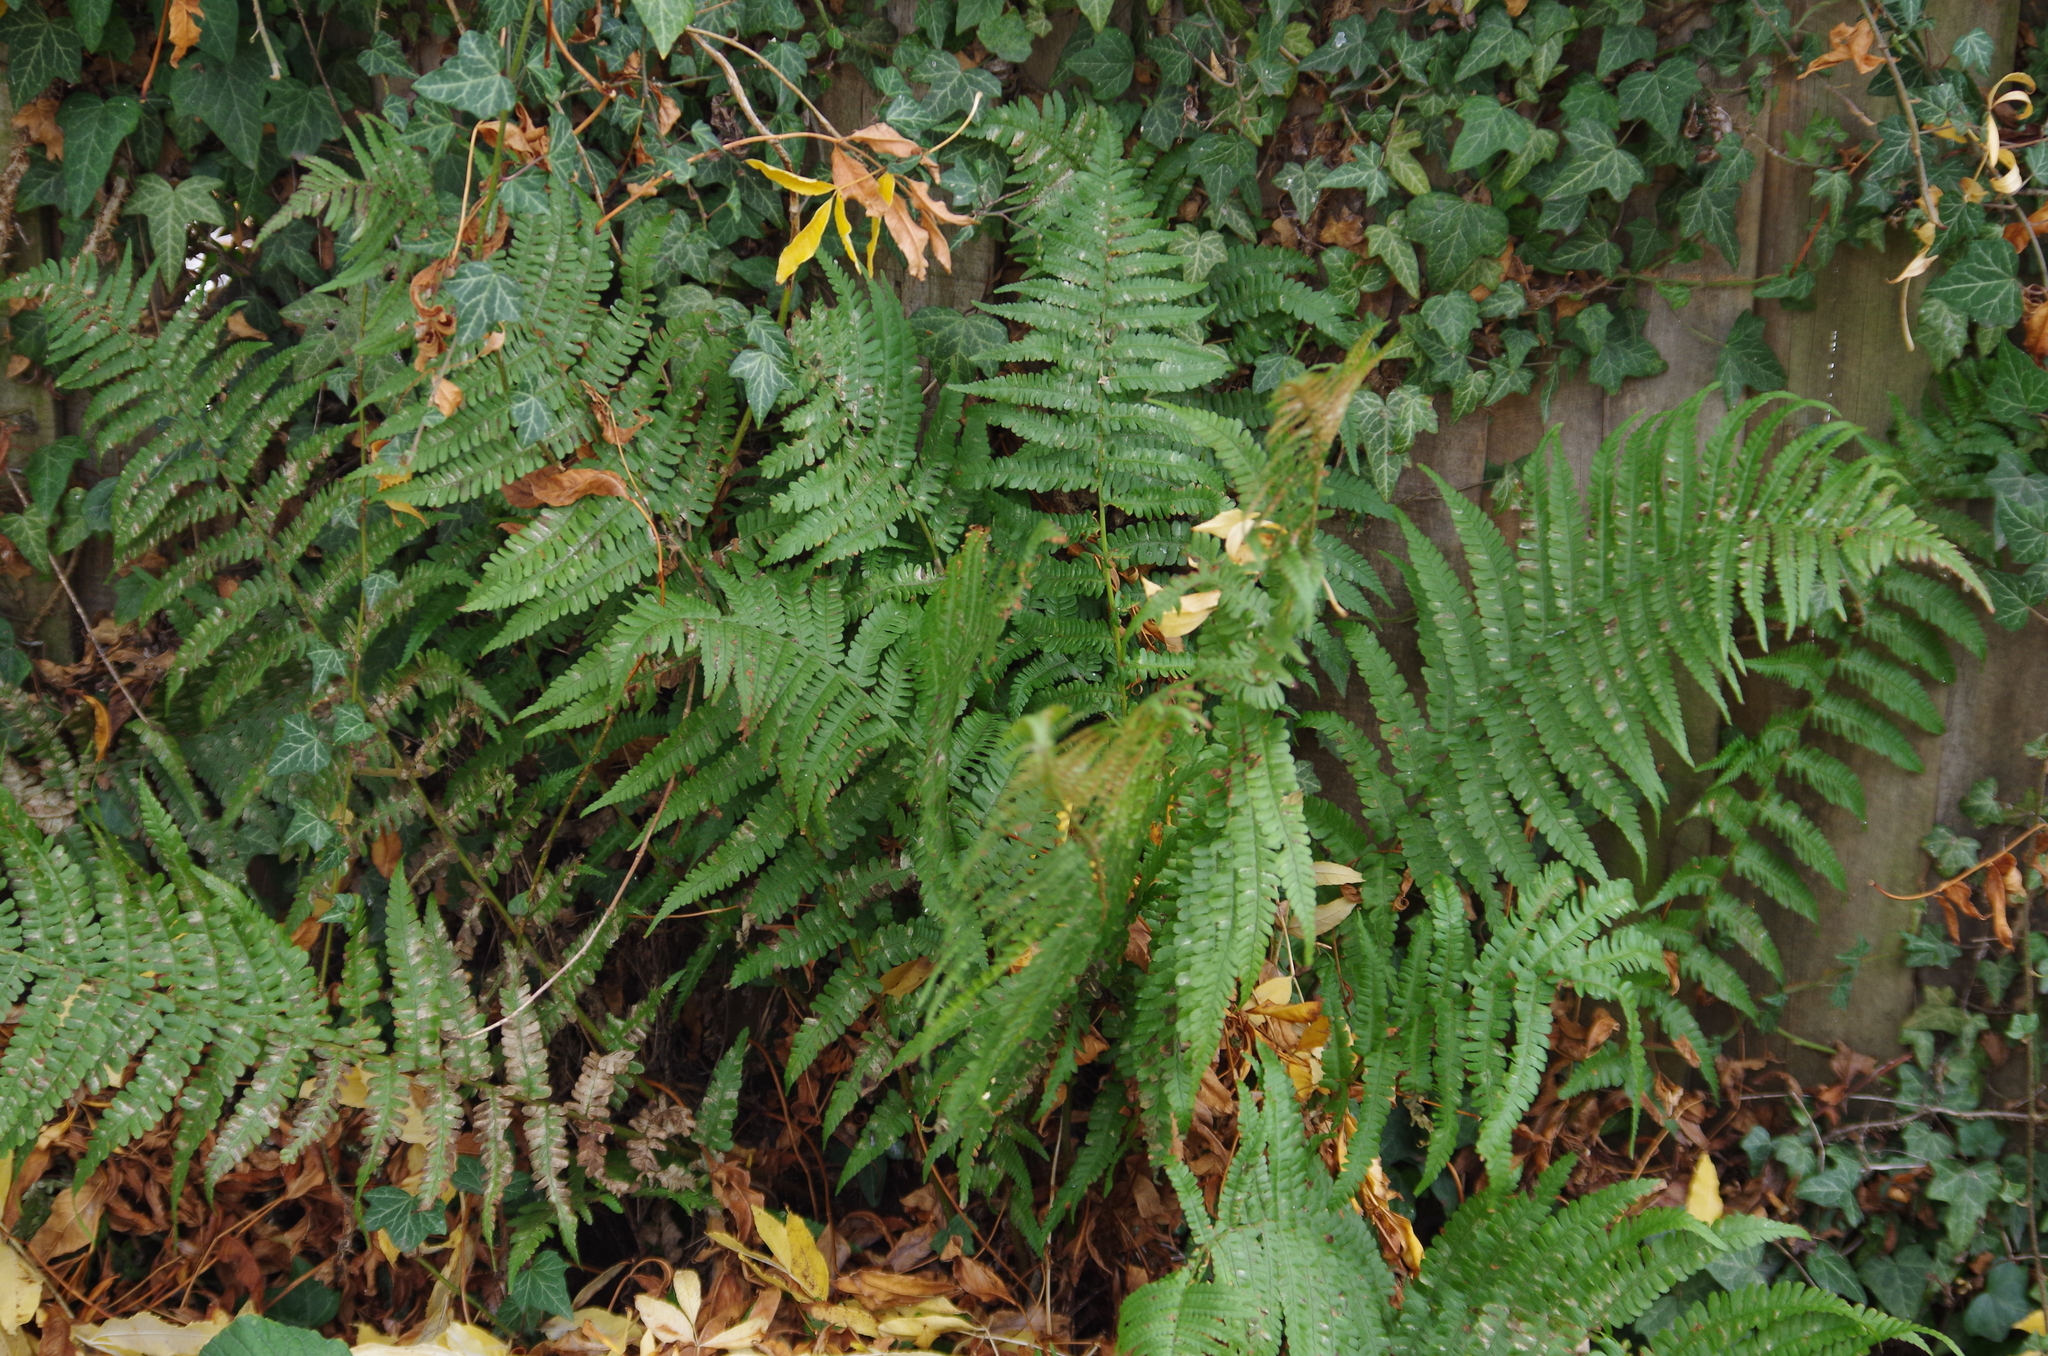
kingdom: Plantae
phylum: Tracheophyta
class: Polypodiopsida
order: Polypodiales
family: Dryopteridaceae
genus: Dryopteris
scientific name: Dryopteris filix-mas
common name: Male fern
